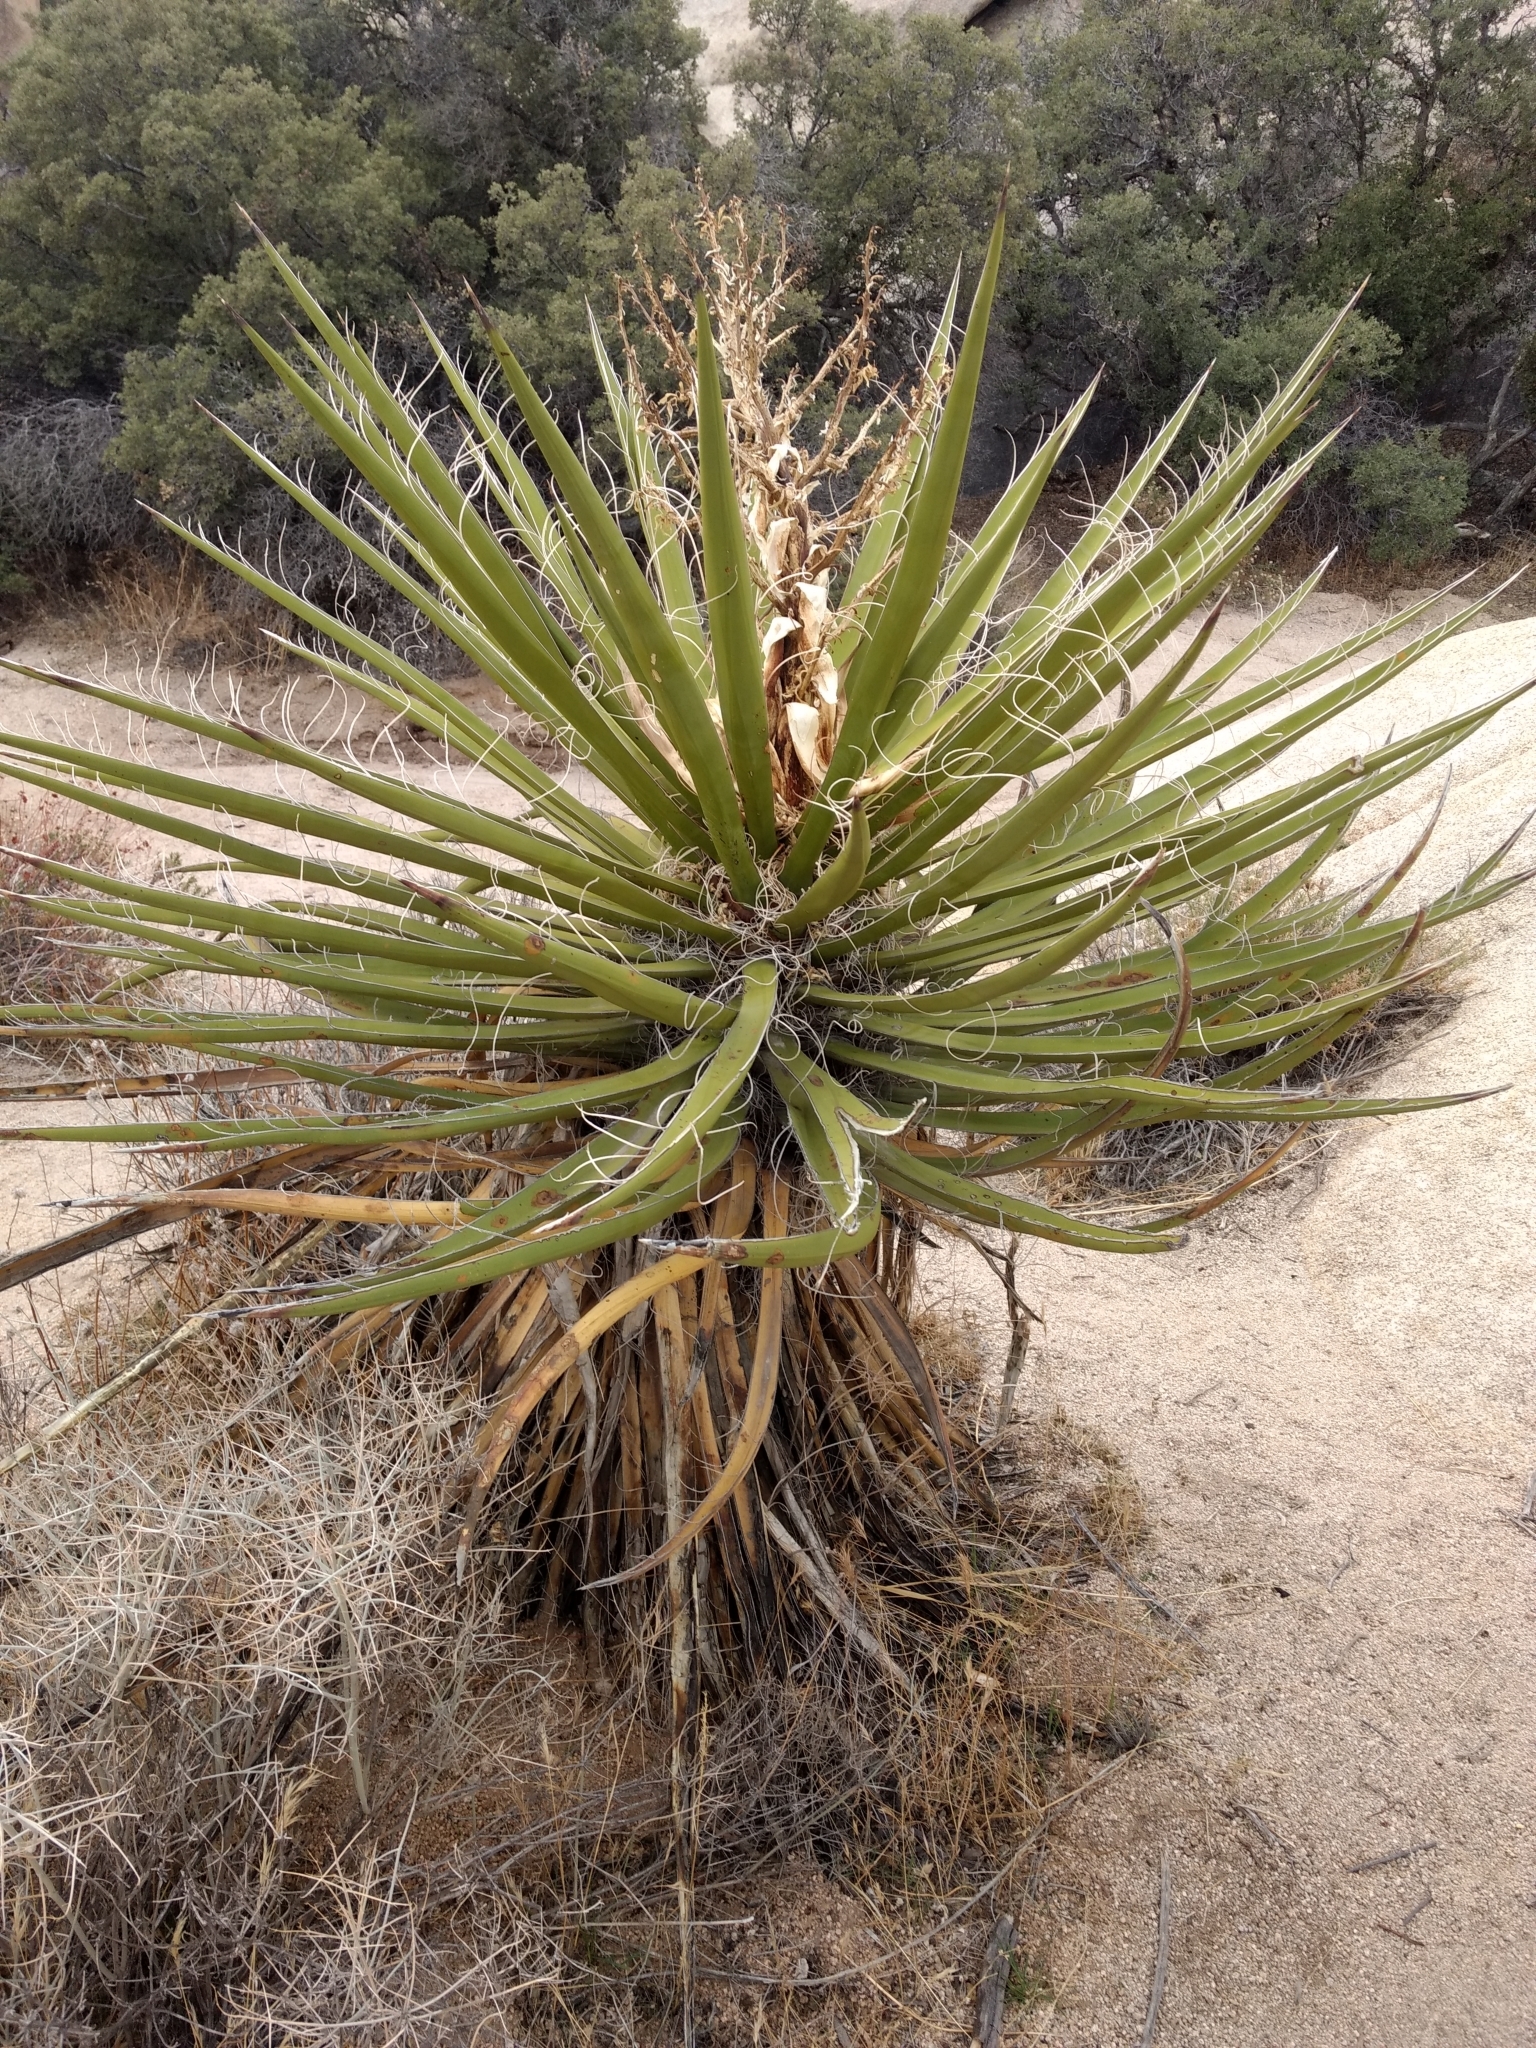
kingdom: Plantae
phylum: Tracheophyta
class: Liliopsida
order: Asparagales
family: Asparagaceae
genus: Yucca
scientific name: Yucca schidigera
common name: Mojave yucca
